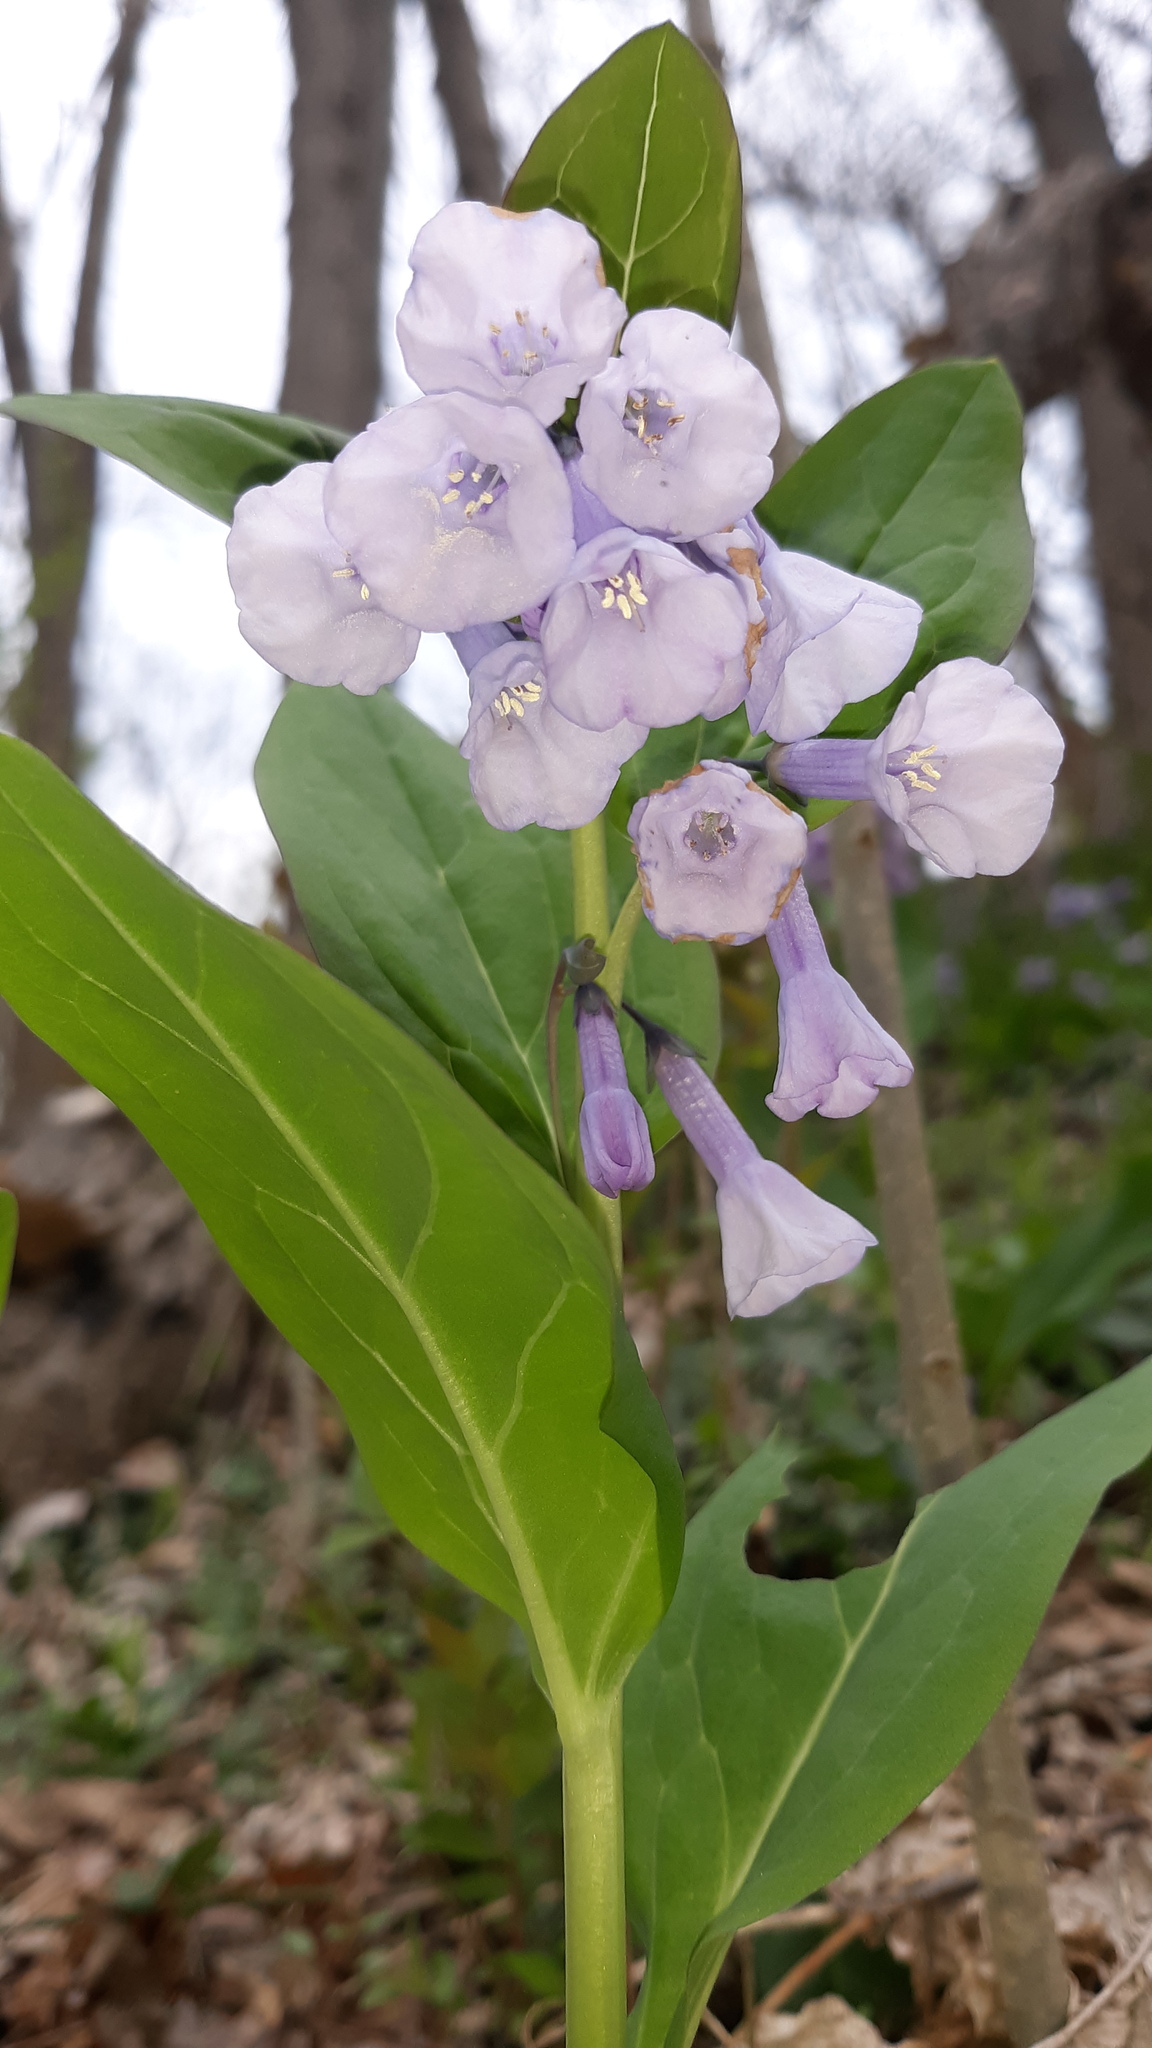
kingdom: Plantae
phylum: Tracheophyta
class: Magnoliopsida
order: Boraginales
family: Boraginaceae
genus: Mertensia
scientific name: Mertensia virginica
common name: Virginia bluebells
